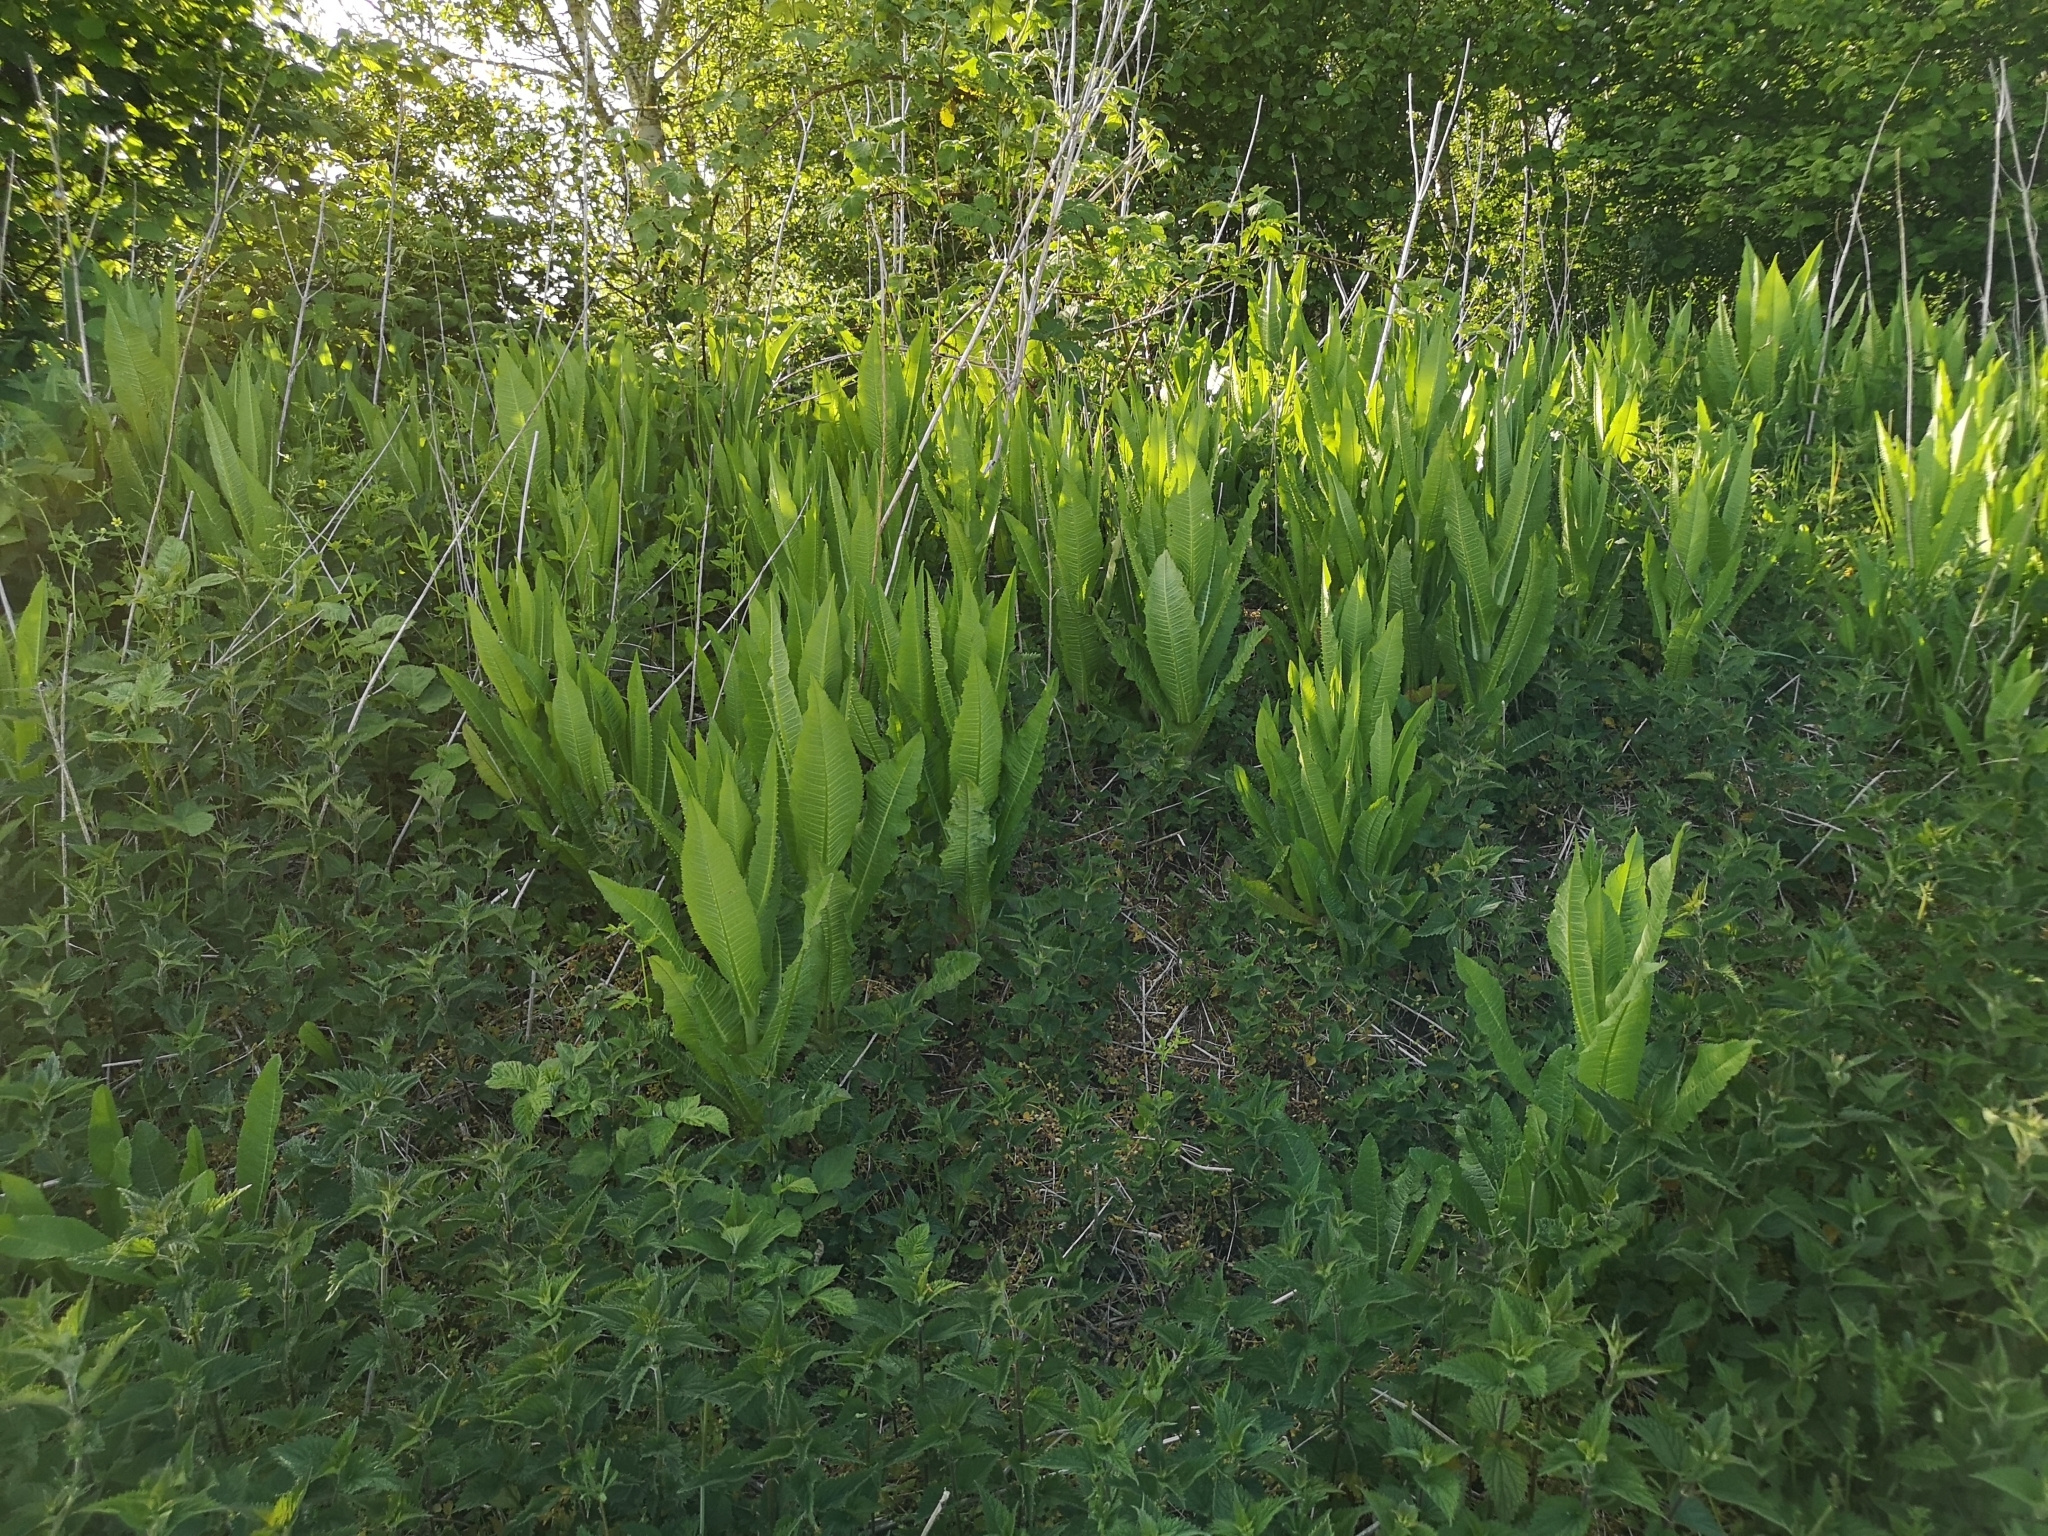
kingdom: Plantae
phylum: Tracheophyta
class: Magnoliopsida
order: Dipsacales
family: Caprifoliaceae
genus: Dipsacus
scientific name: Dipsacus fullonum
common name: Teasel
